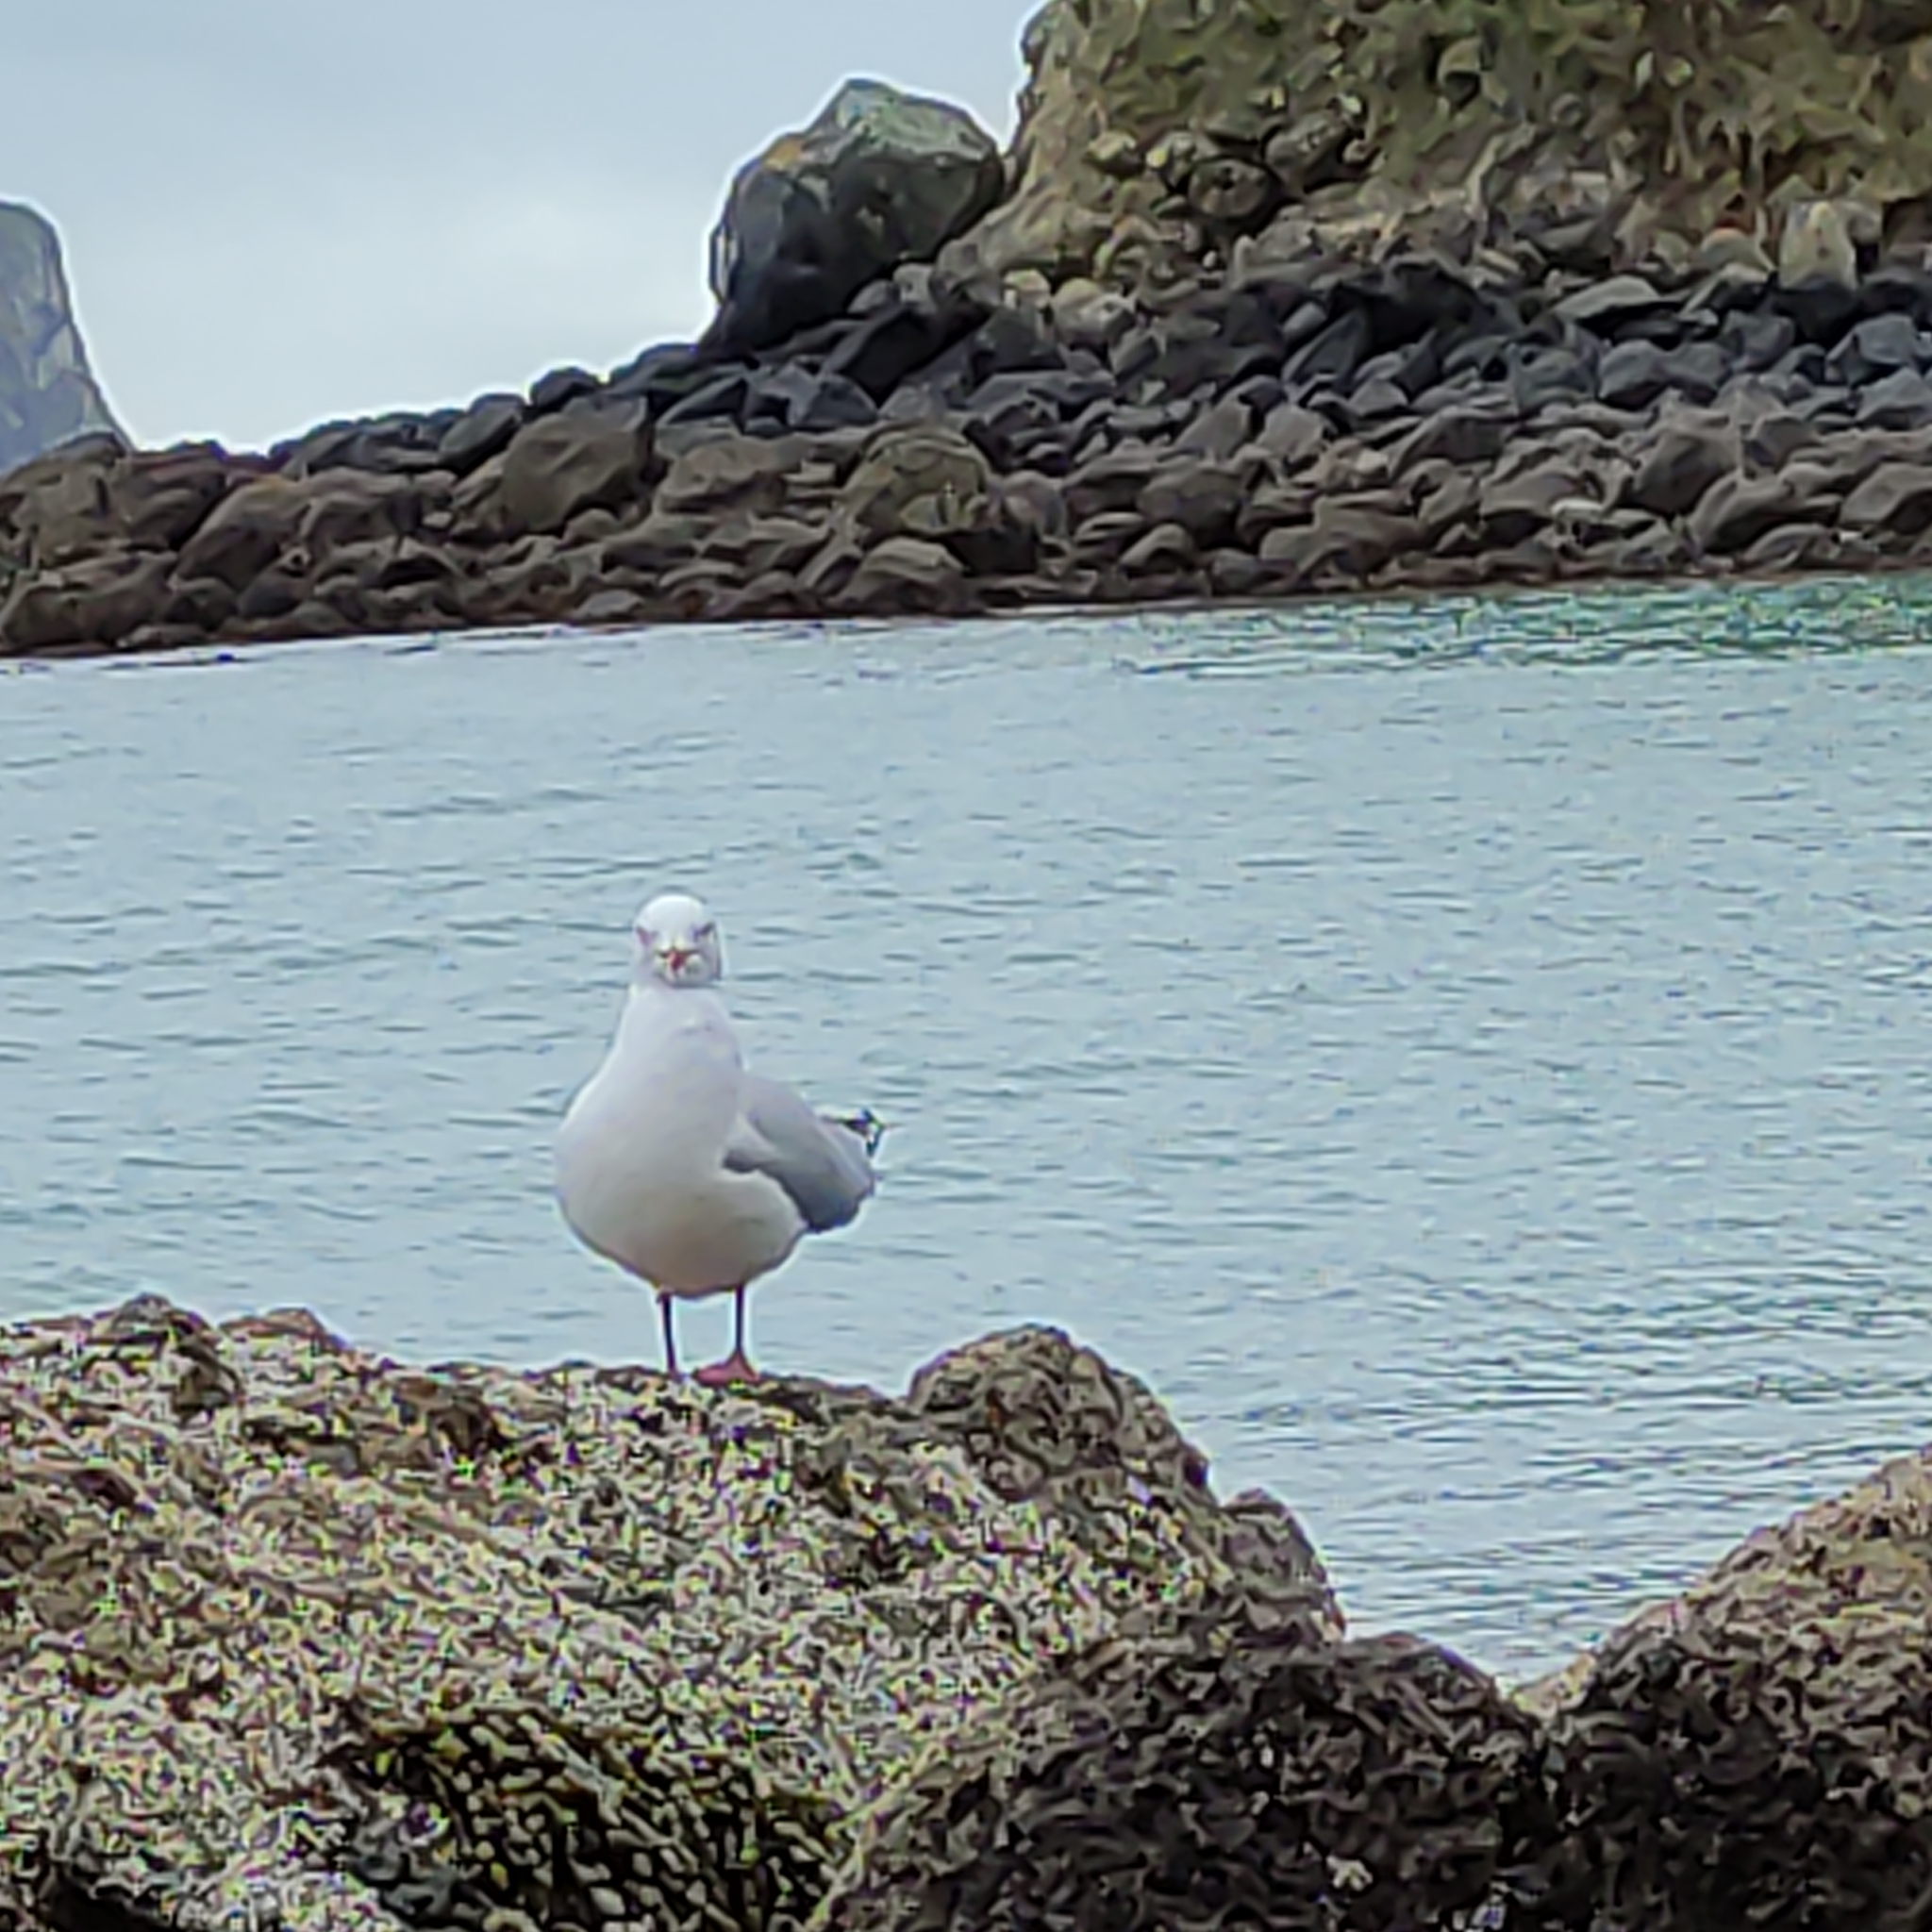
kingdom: Animalia
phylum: Chordata
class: Aves
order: Charadriiformes
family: Laridae
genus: Chroicocephalus
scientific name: Chroicocephalus novaehollandiae
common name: Silver gull
